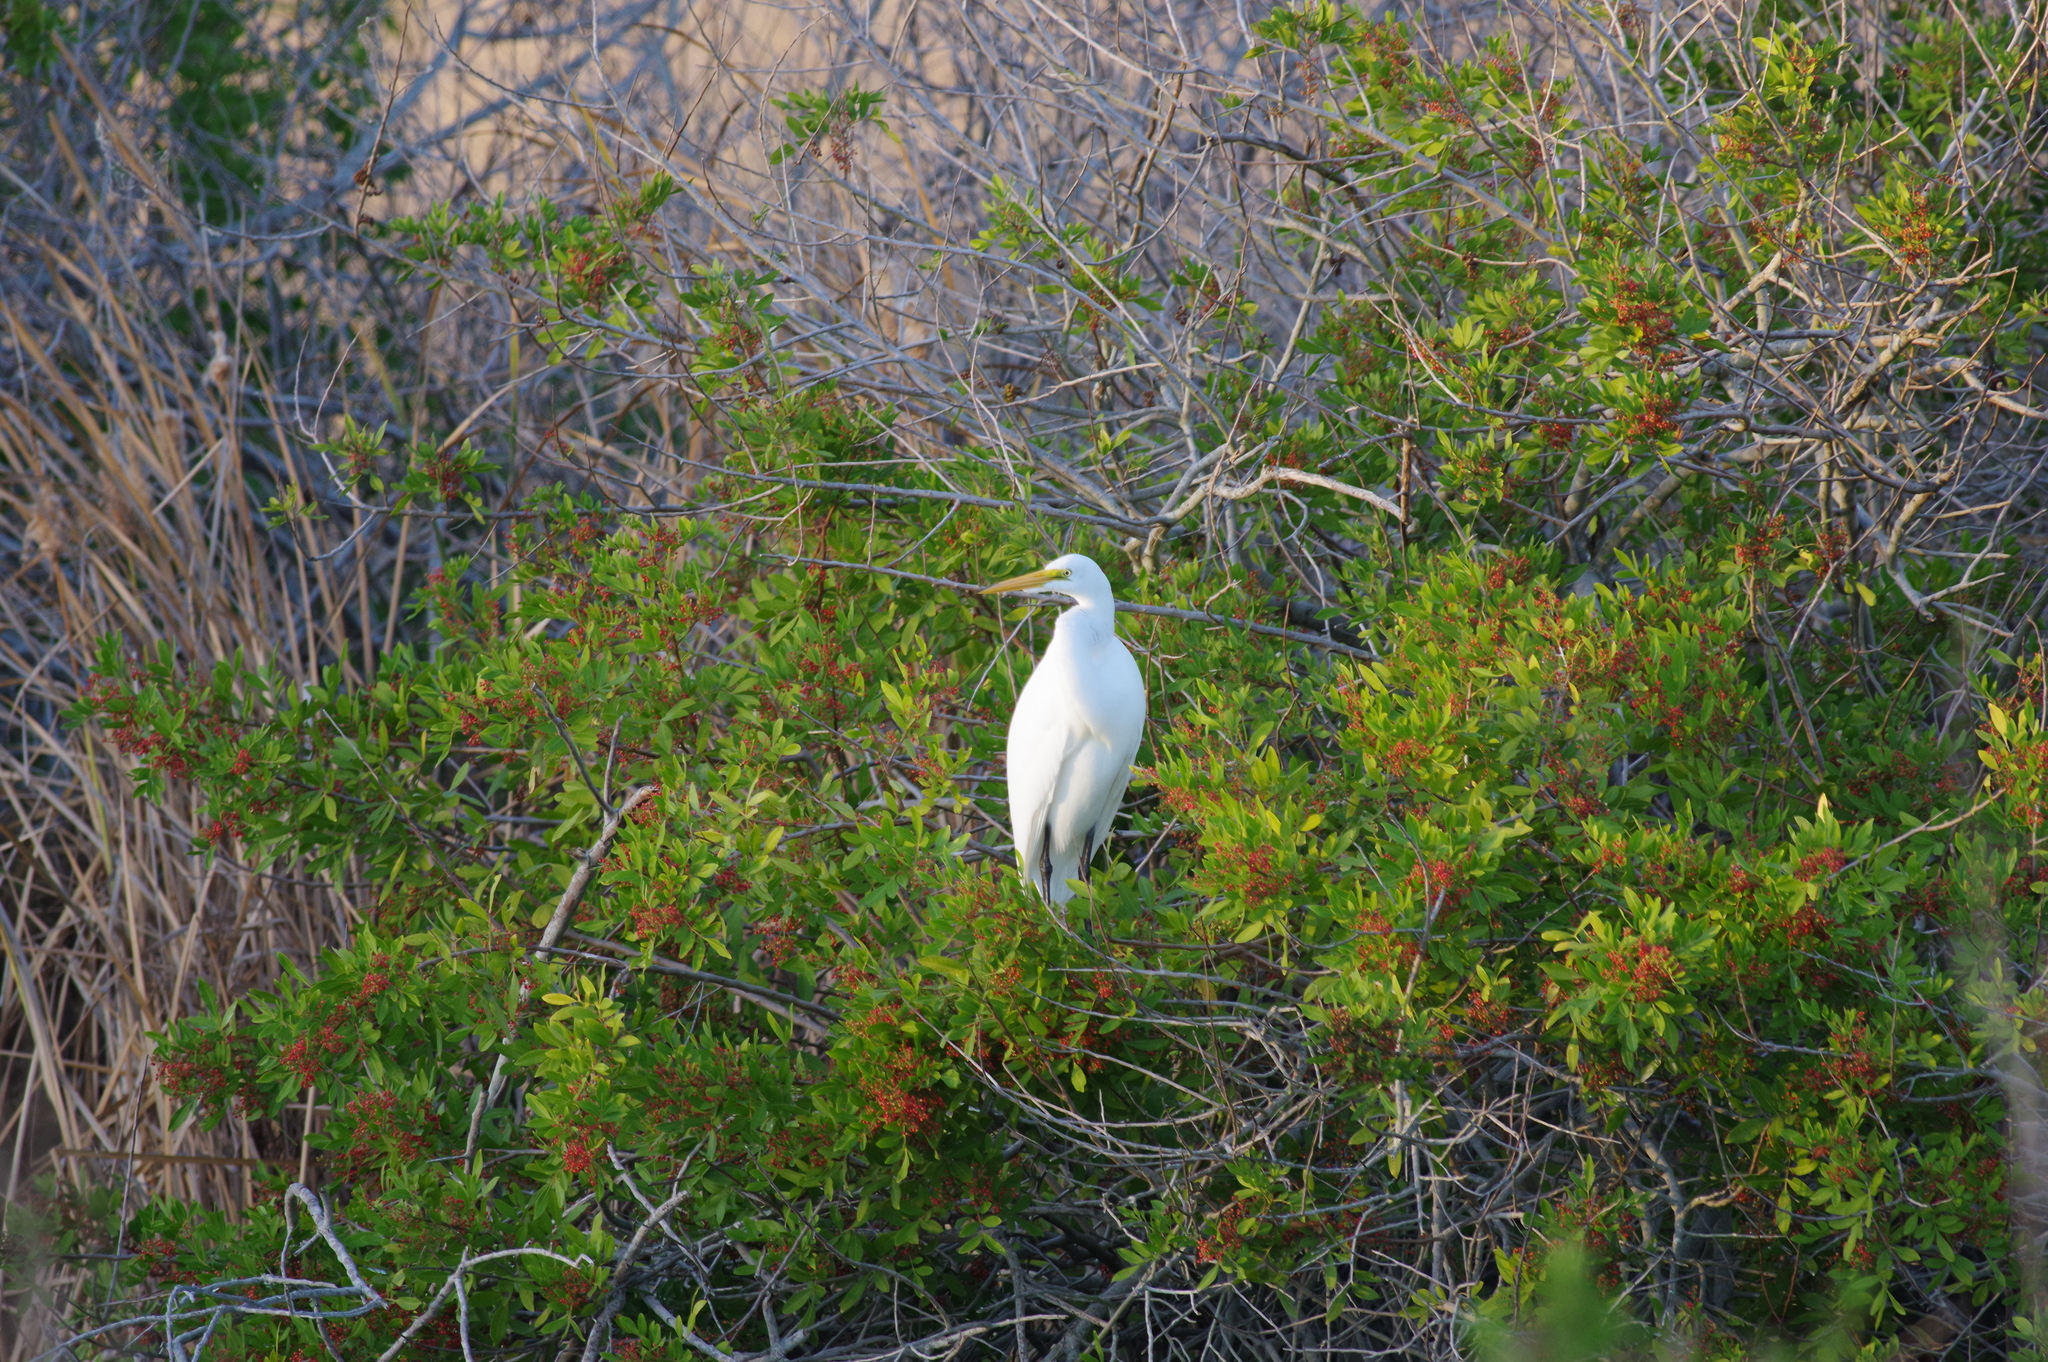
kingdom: Animalia
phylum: Chordata
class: Aves
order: Pelecaniformes
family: Ardeidae
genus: Ardea
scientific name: Ardea alba
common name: Great egret
